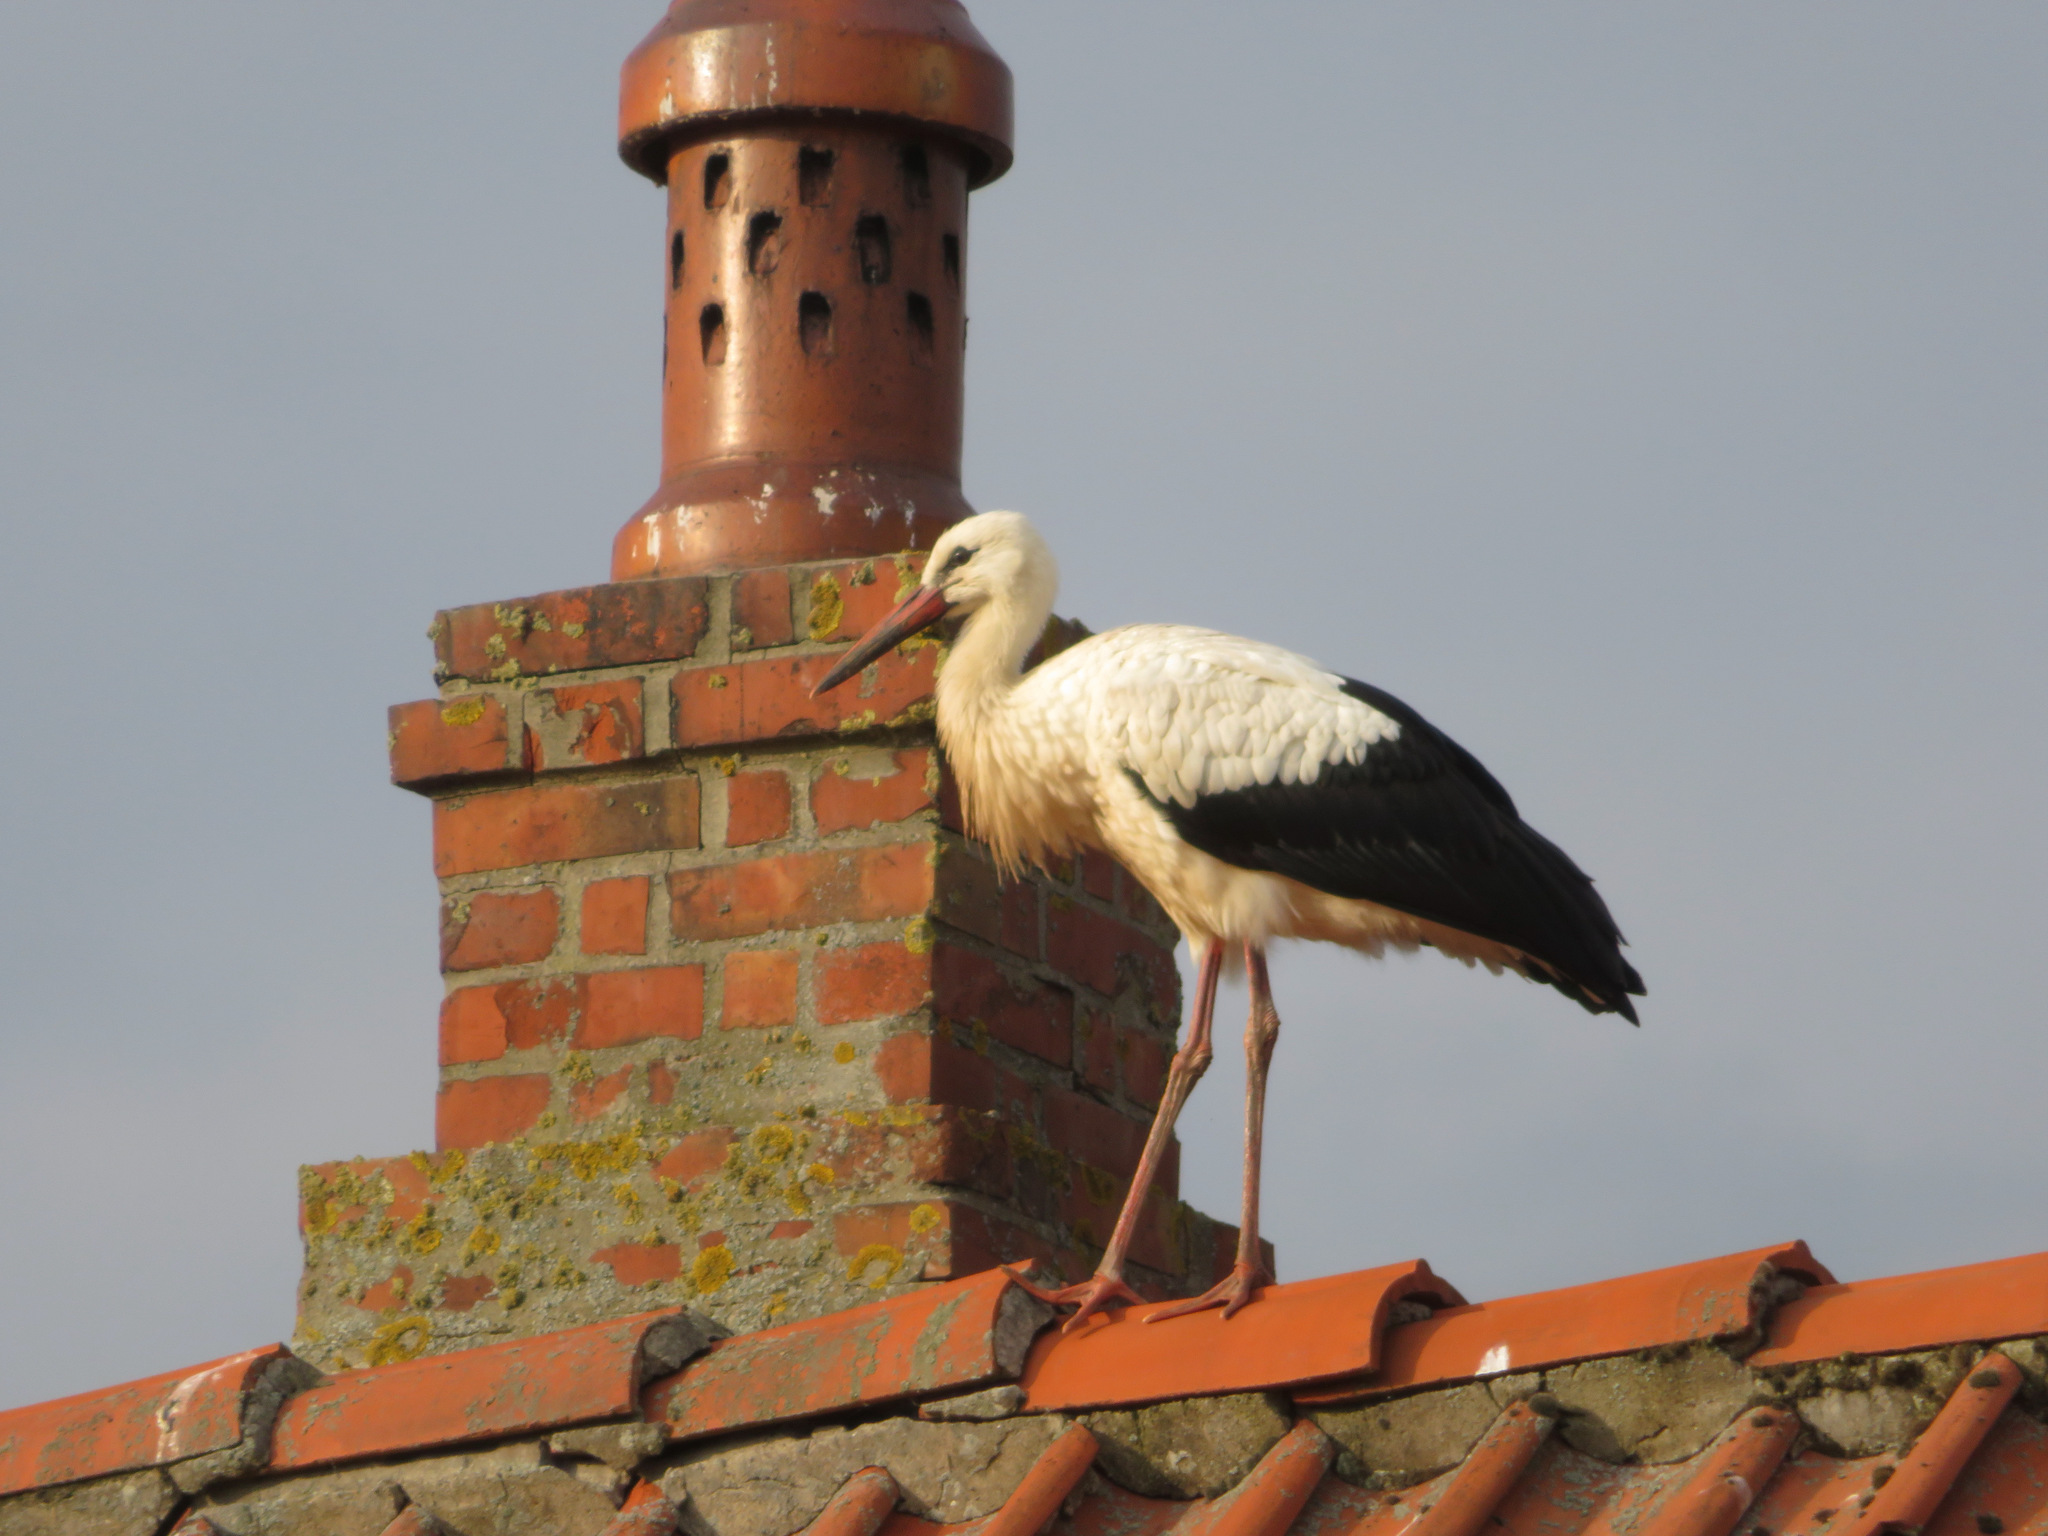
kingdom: Animalia
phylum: Chordata
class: Aves
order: Ciconiiformes
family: Ciconiidae
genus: Ciconia
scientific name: Ciconia ciconia
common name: White stork
